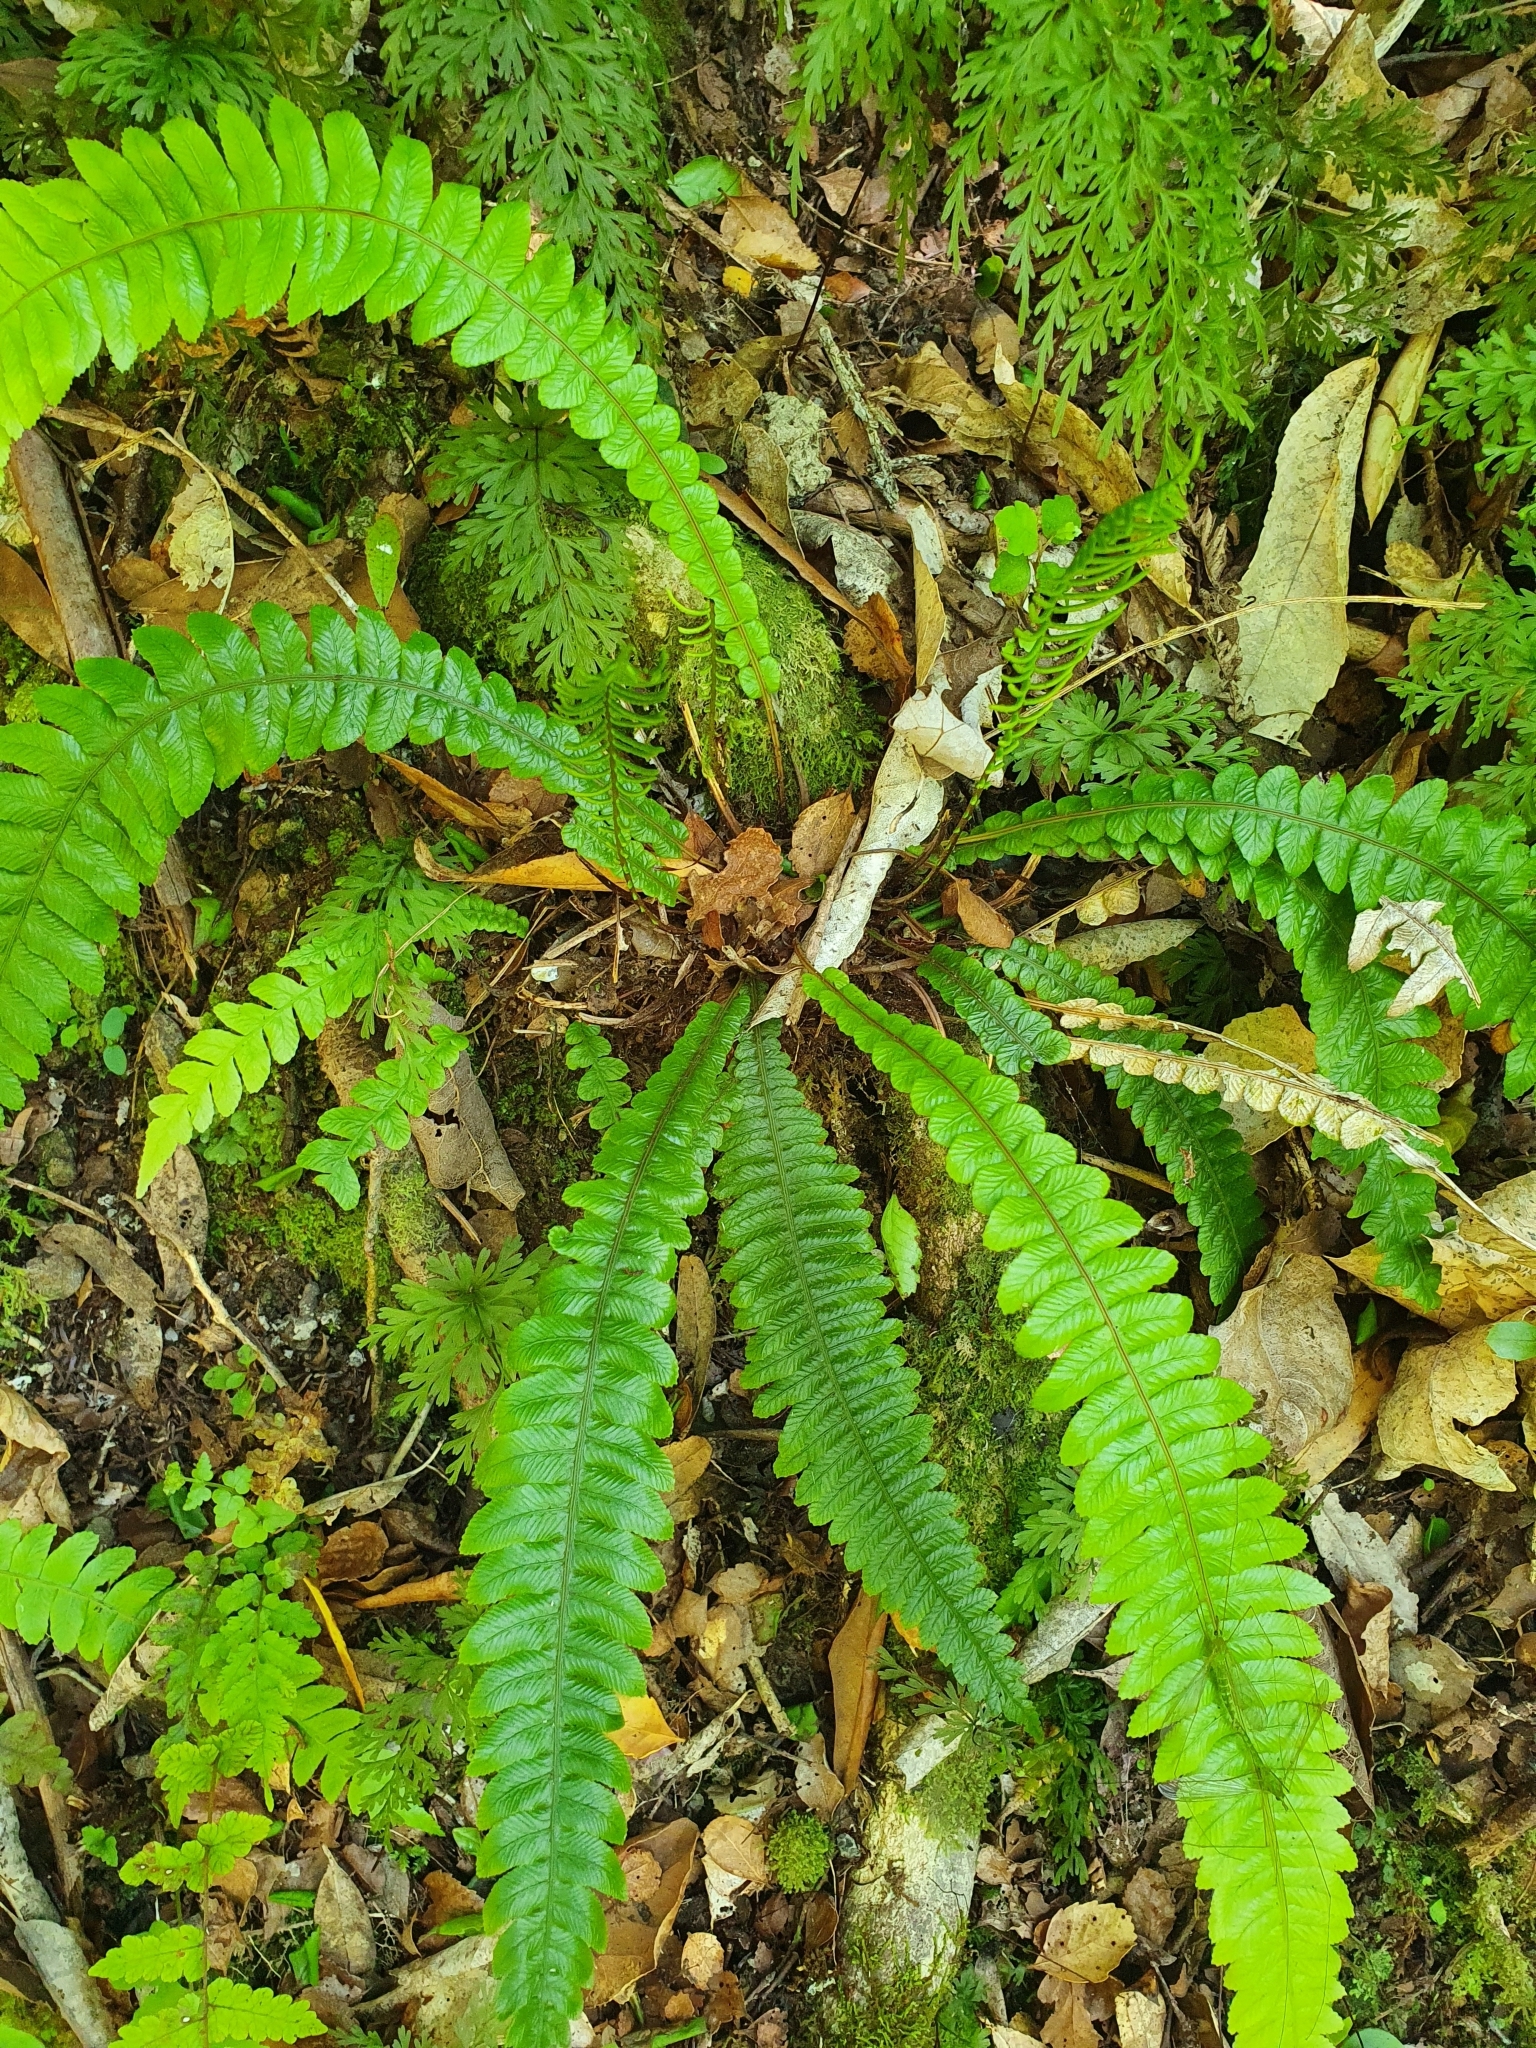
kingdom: Plantae
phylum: Tracheophyta
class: Polypodiopsida
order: Polypodiales
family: Blechnaceae
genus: Austroblechnum
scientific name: Austroblechnum lanceolatum
